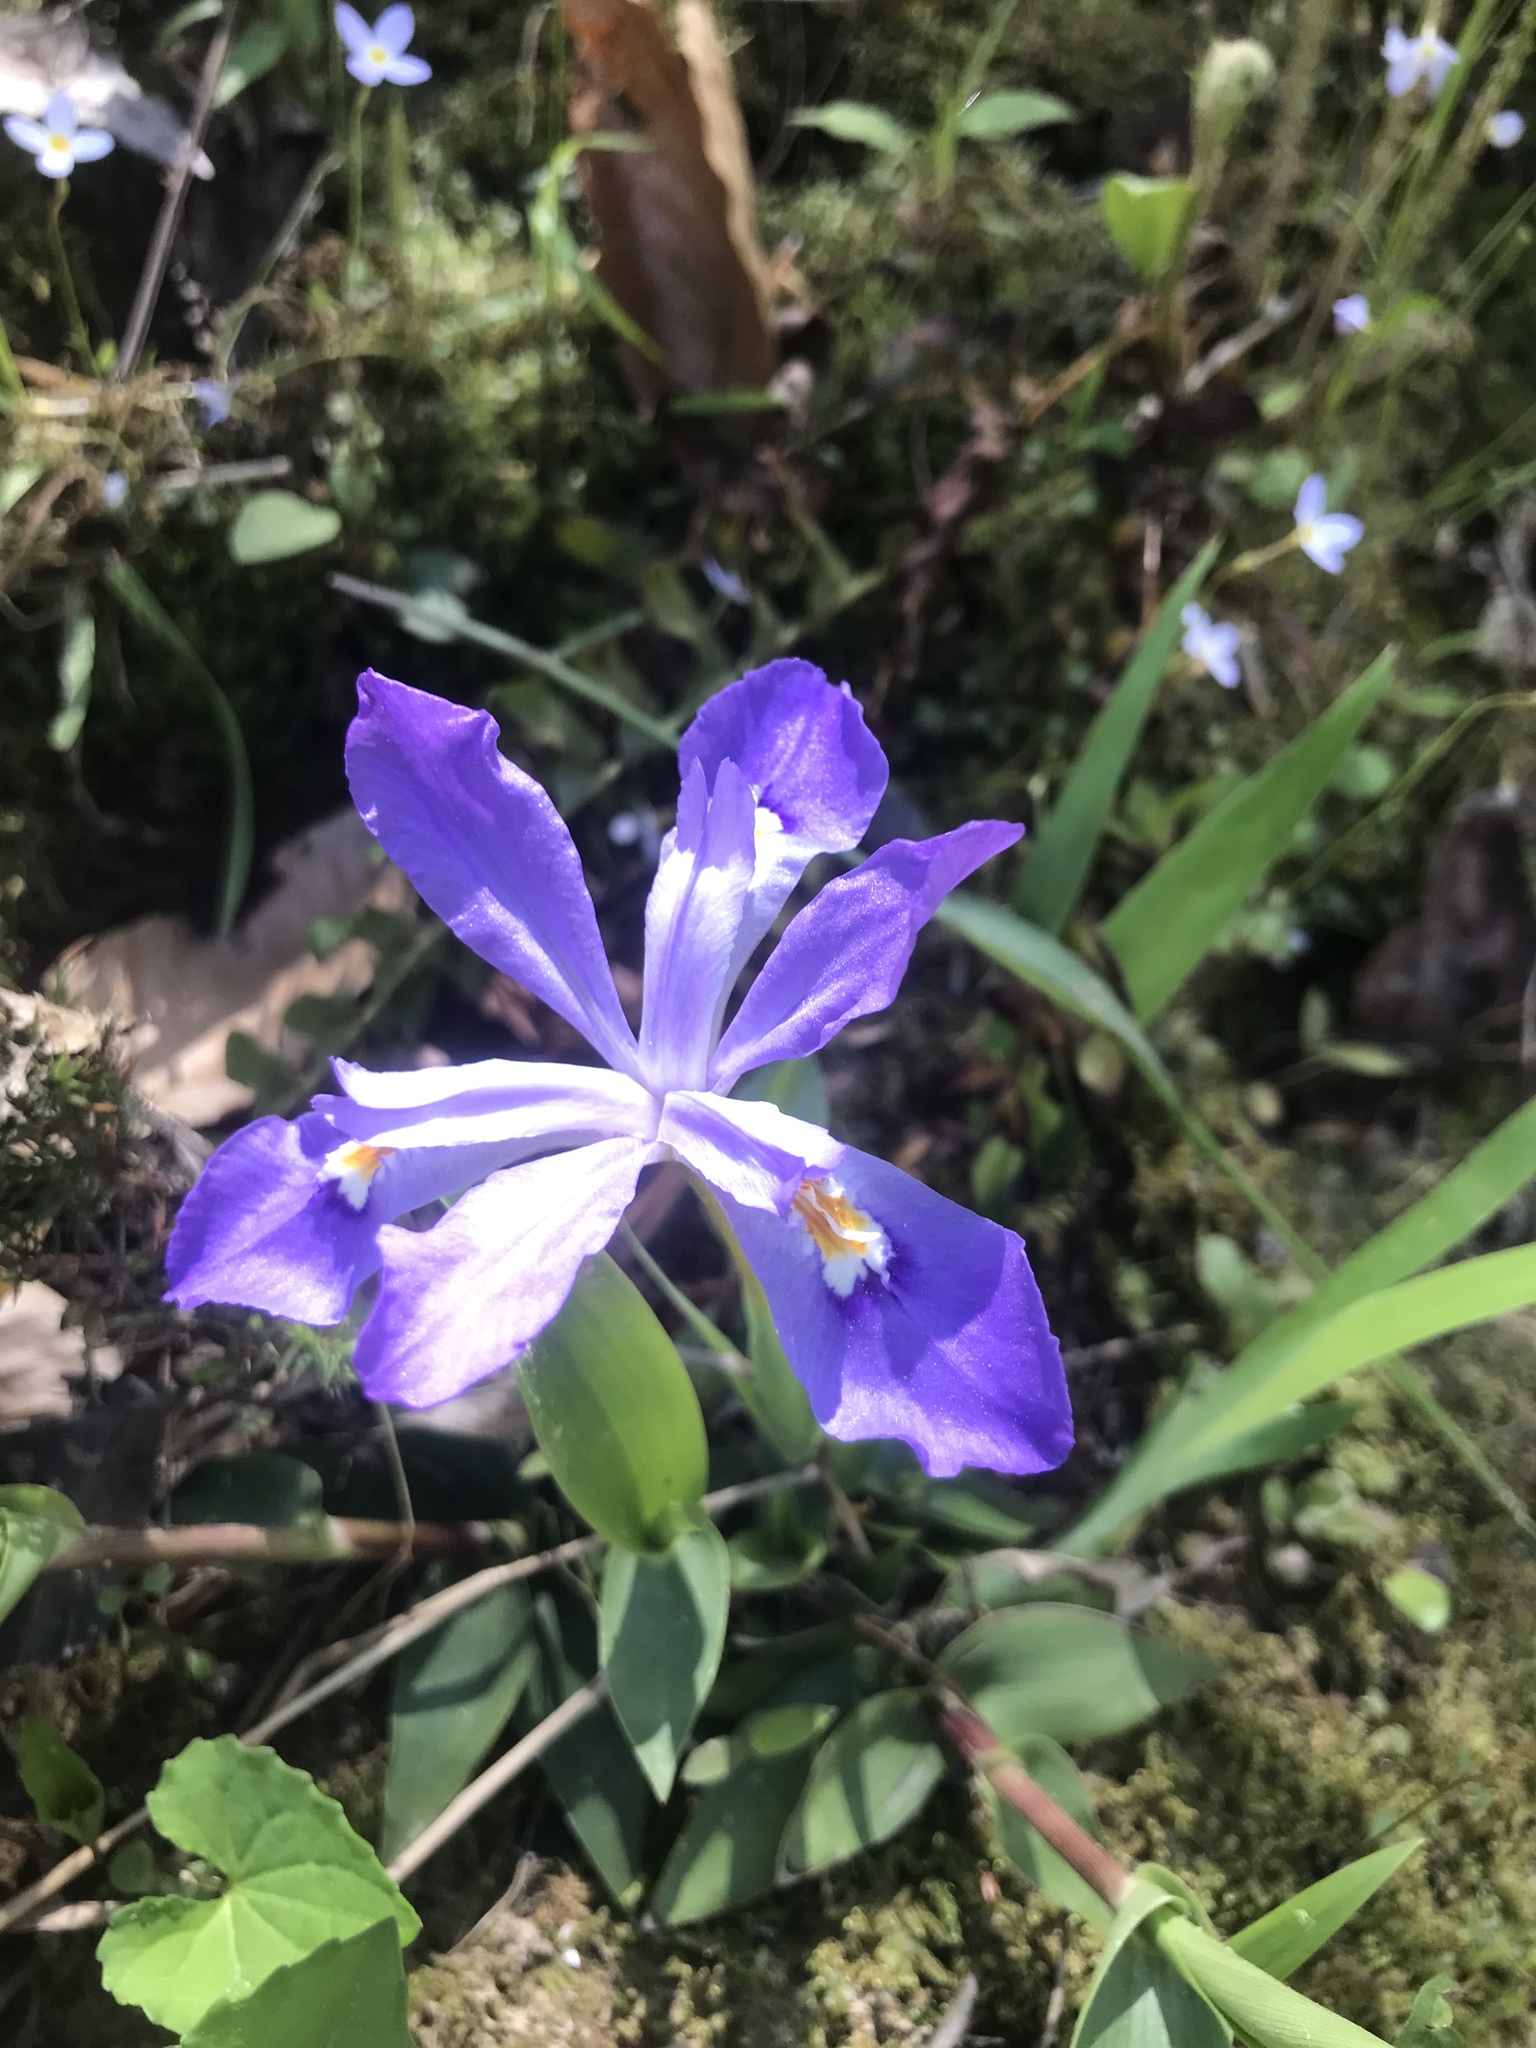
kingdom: Plantae
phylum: Tracheophyta
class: Liliopsida
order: Asparagales
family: Iridaceae
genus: Iris
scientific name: Iris cristata
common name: Crested iris
